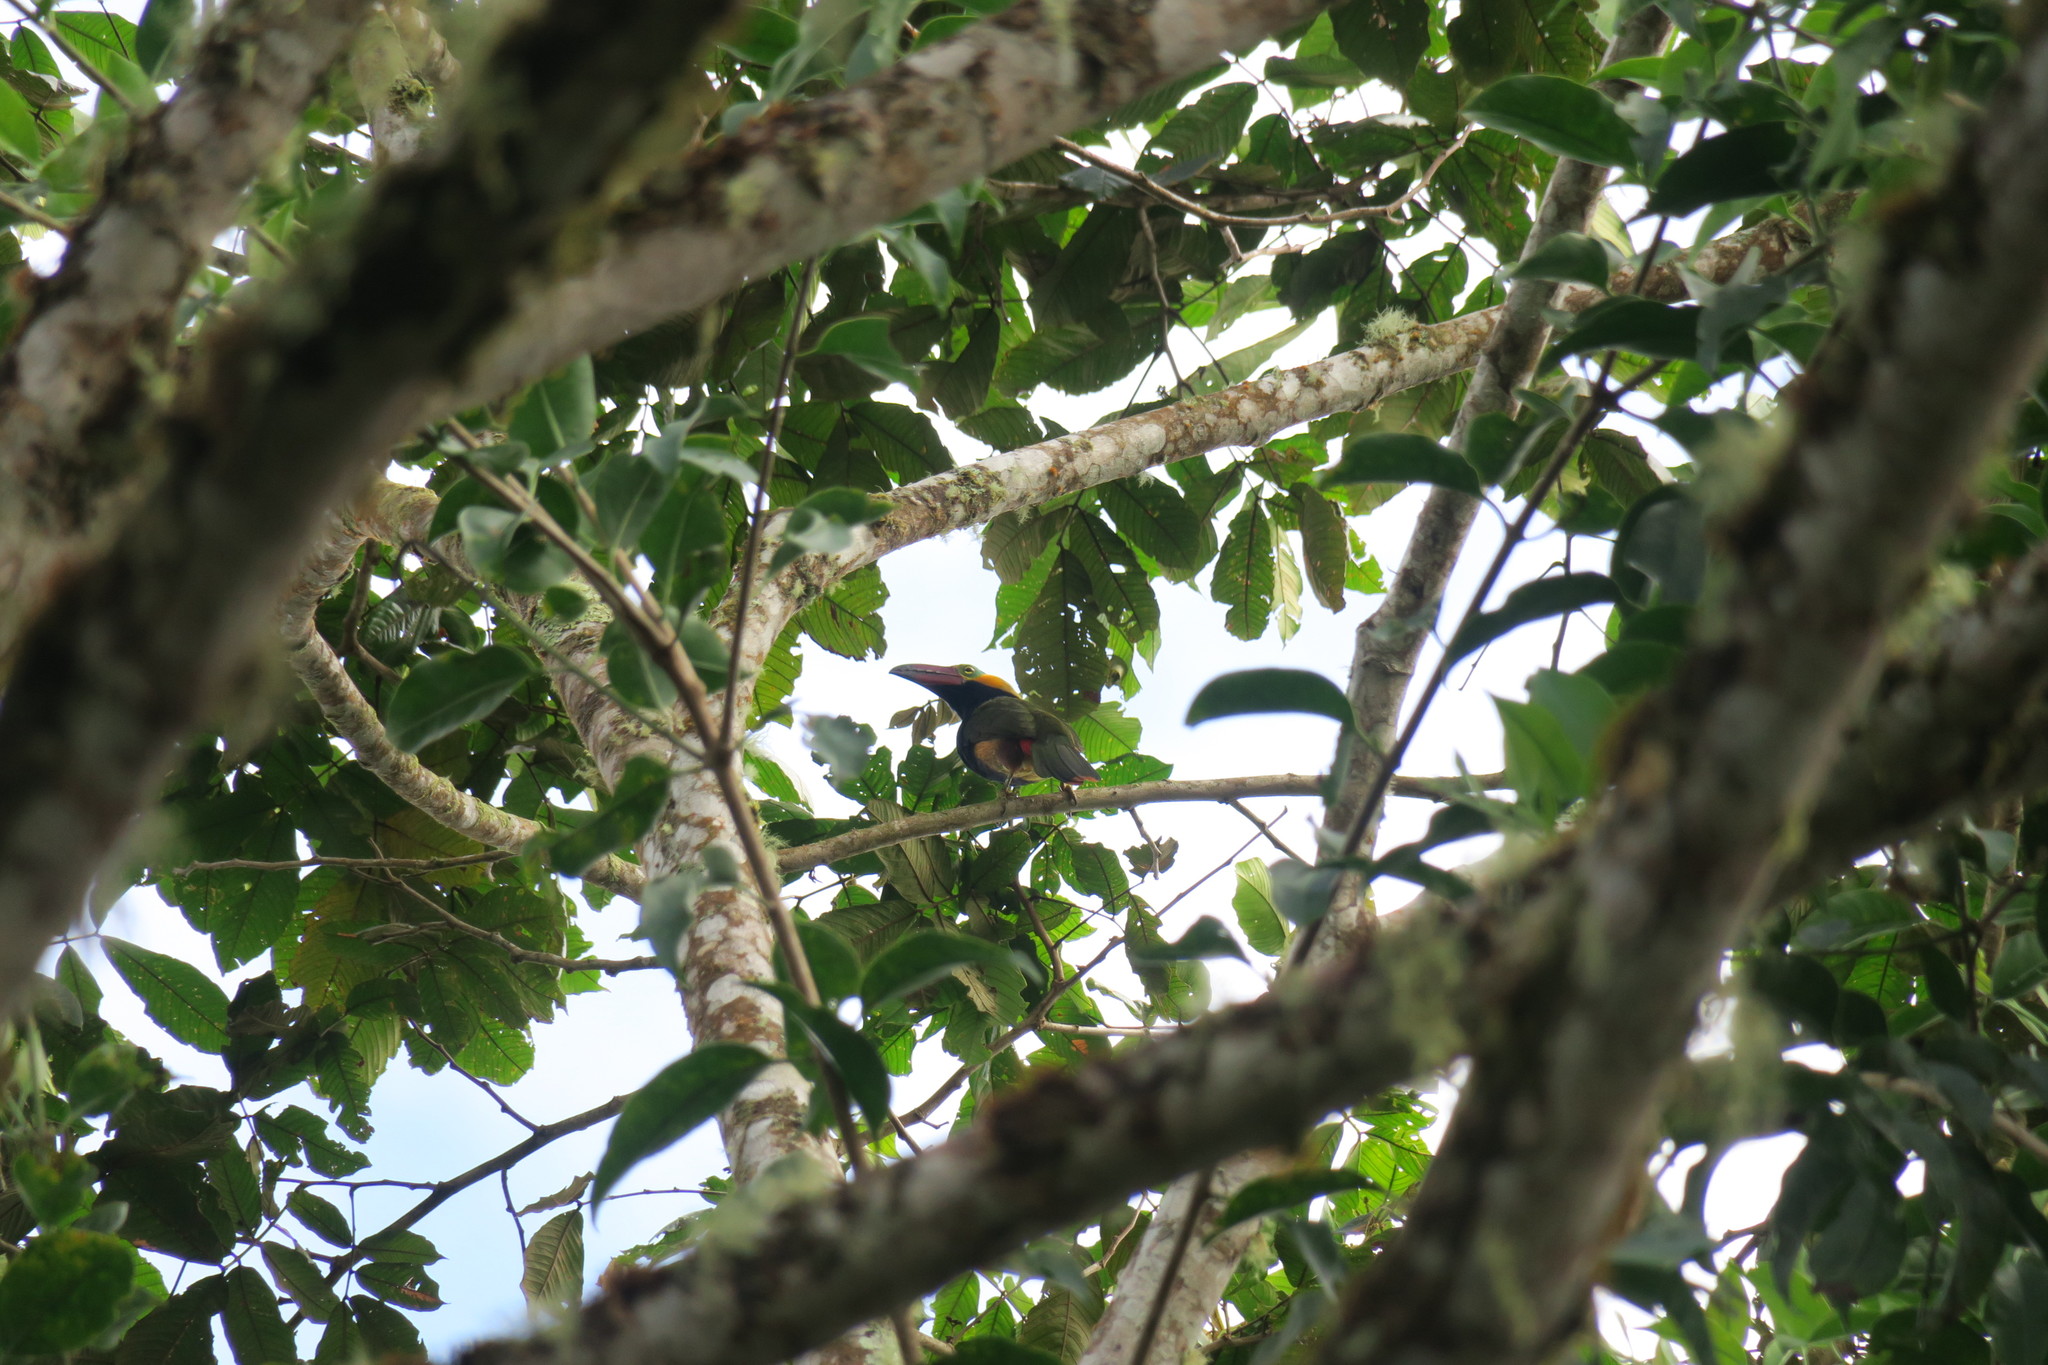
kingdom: Animalia
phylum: Chordata
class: Aves
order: Piciformes
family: Ramphastidae
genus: Selenidera
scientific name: Selenidera reinwardtii
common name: Golden-collared toucanet
